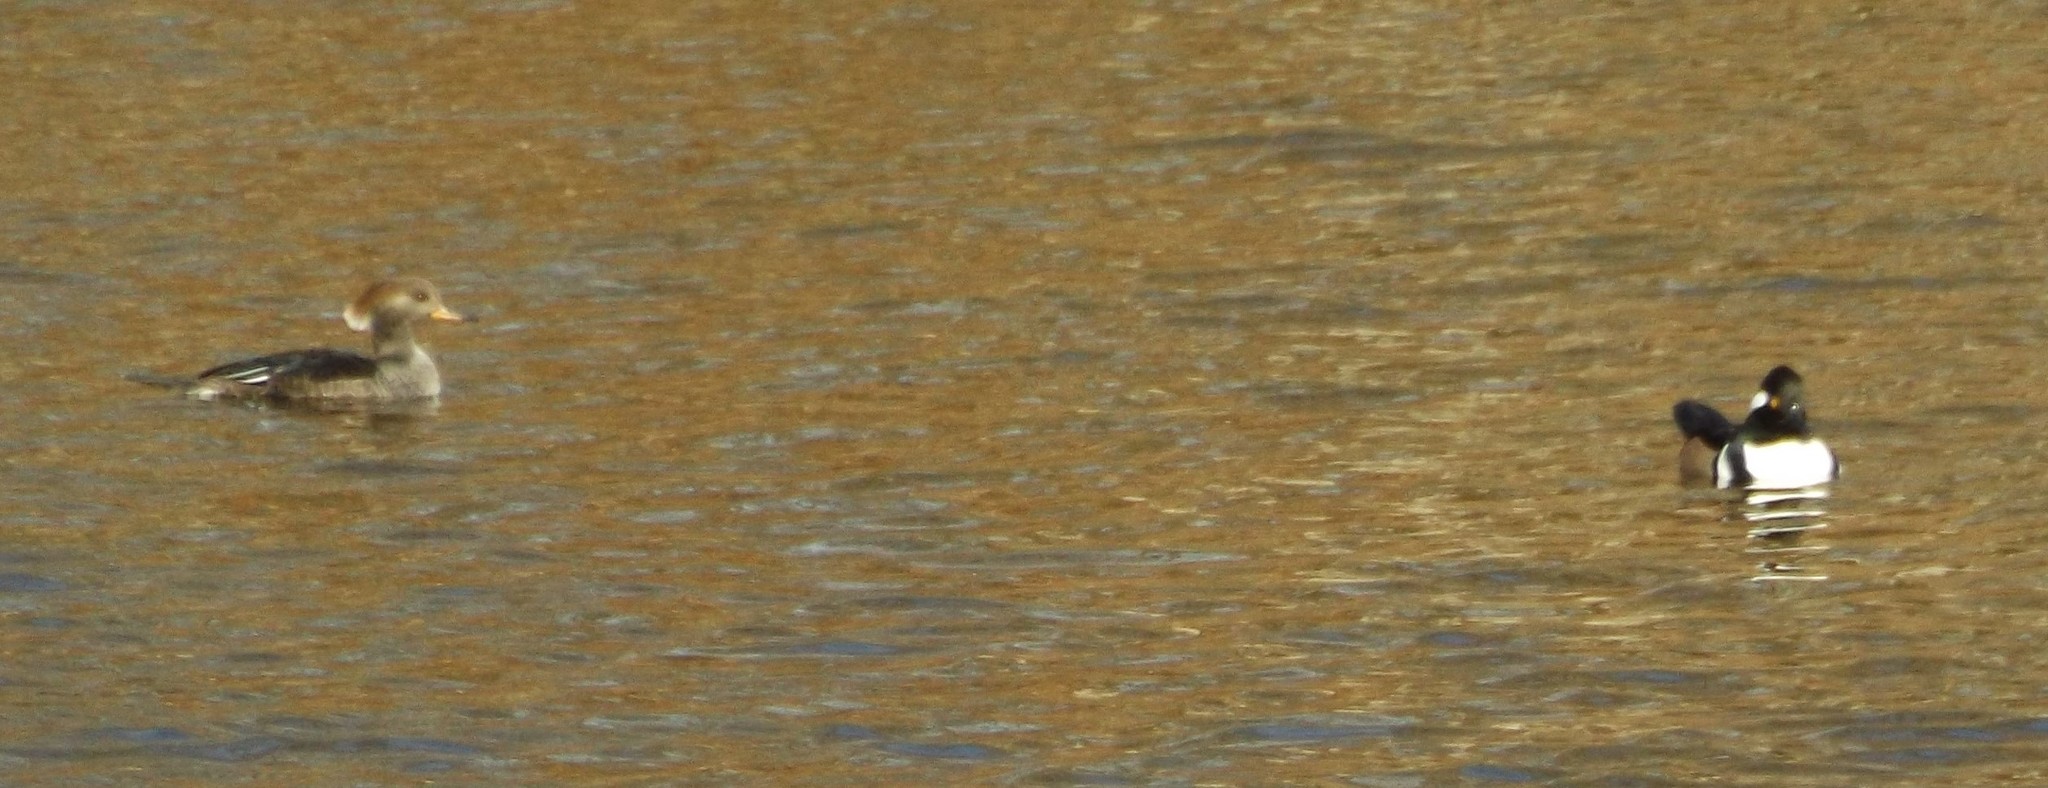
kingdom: Animalia
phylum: Chordata
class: Aves
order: Anseriformes
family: Anatidae
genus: Lophodytes
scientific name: Lophodytes cucullatus
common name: Hooded merganser
